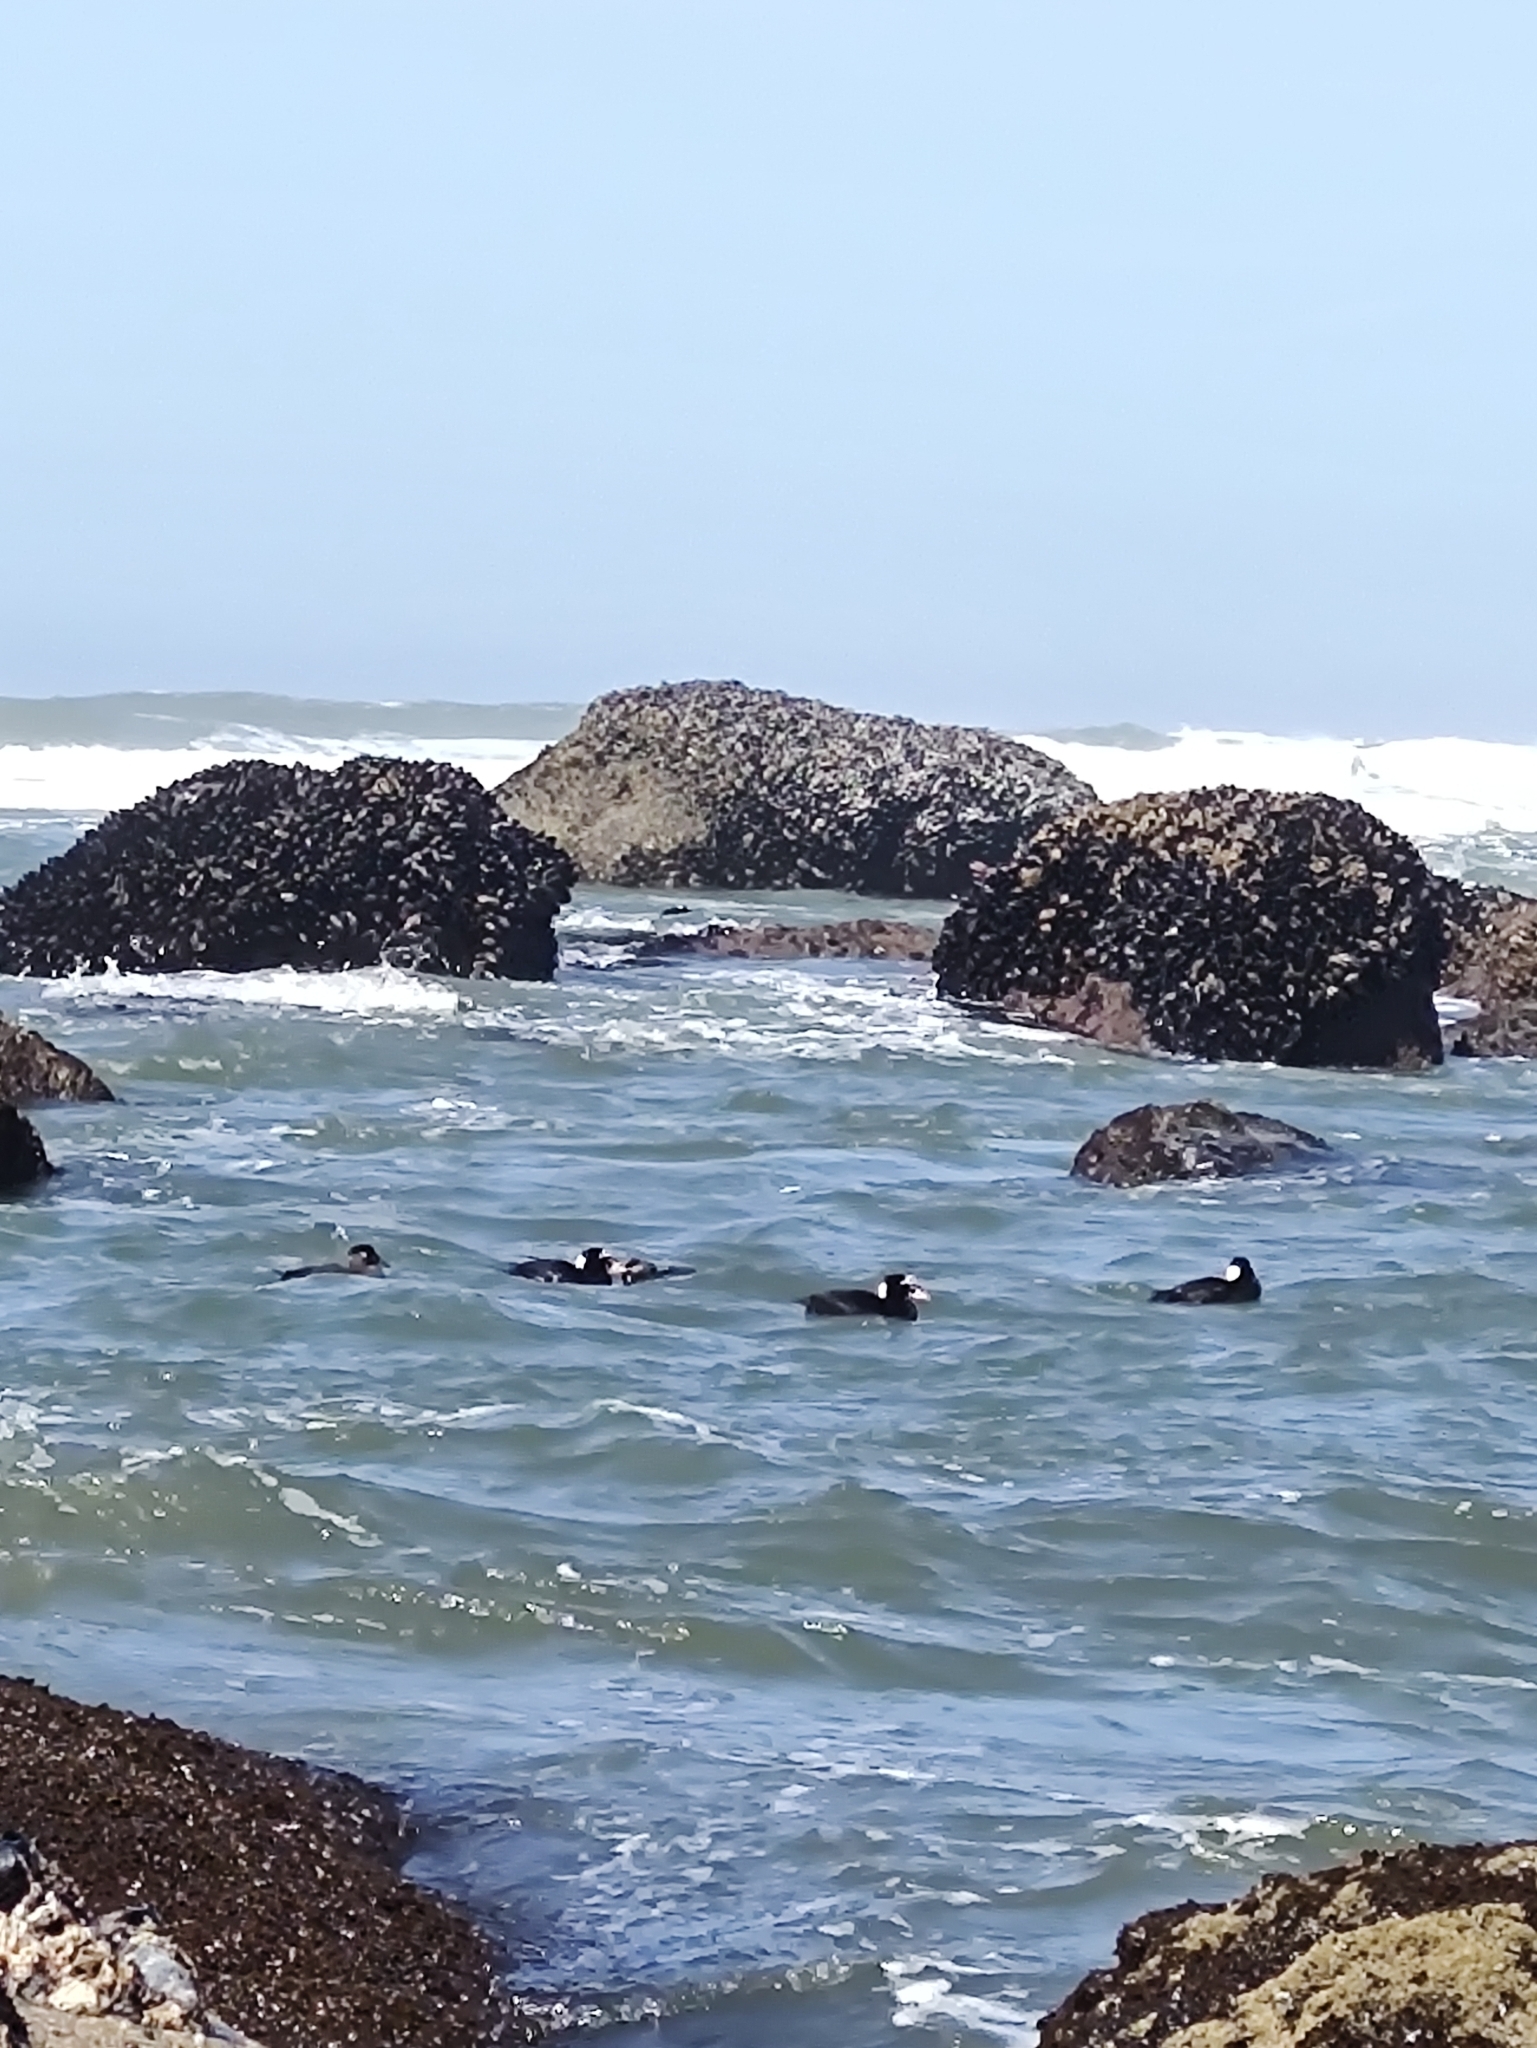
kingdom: Animalia
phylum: Chordata
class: Aves
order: Anseriformes
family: Anatidae
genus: Melanitta
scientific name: Melanitta perspicillata
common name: Surf scoter
